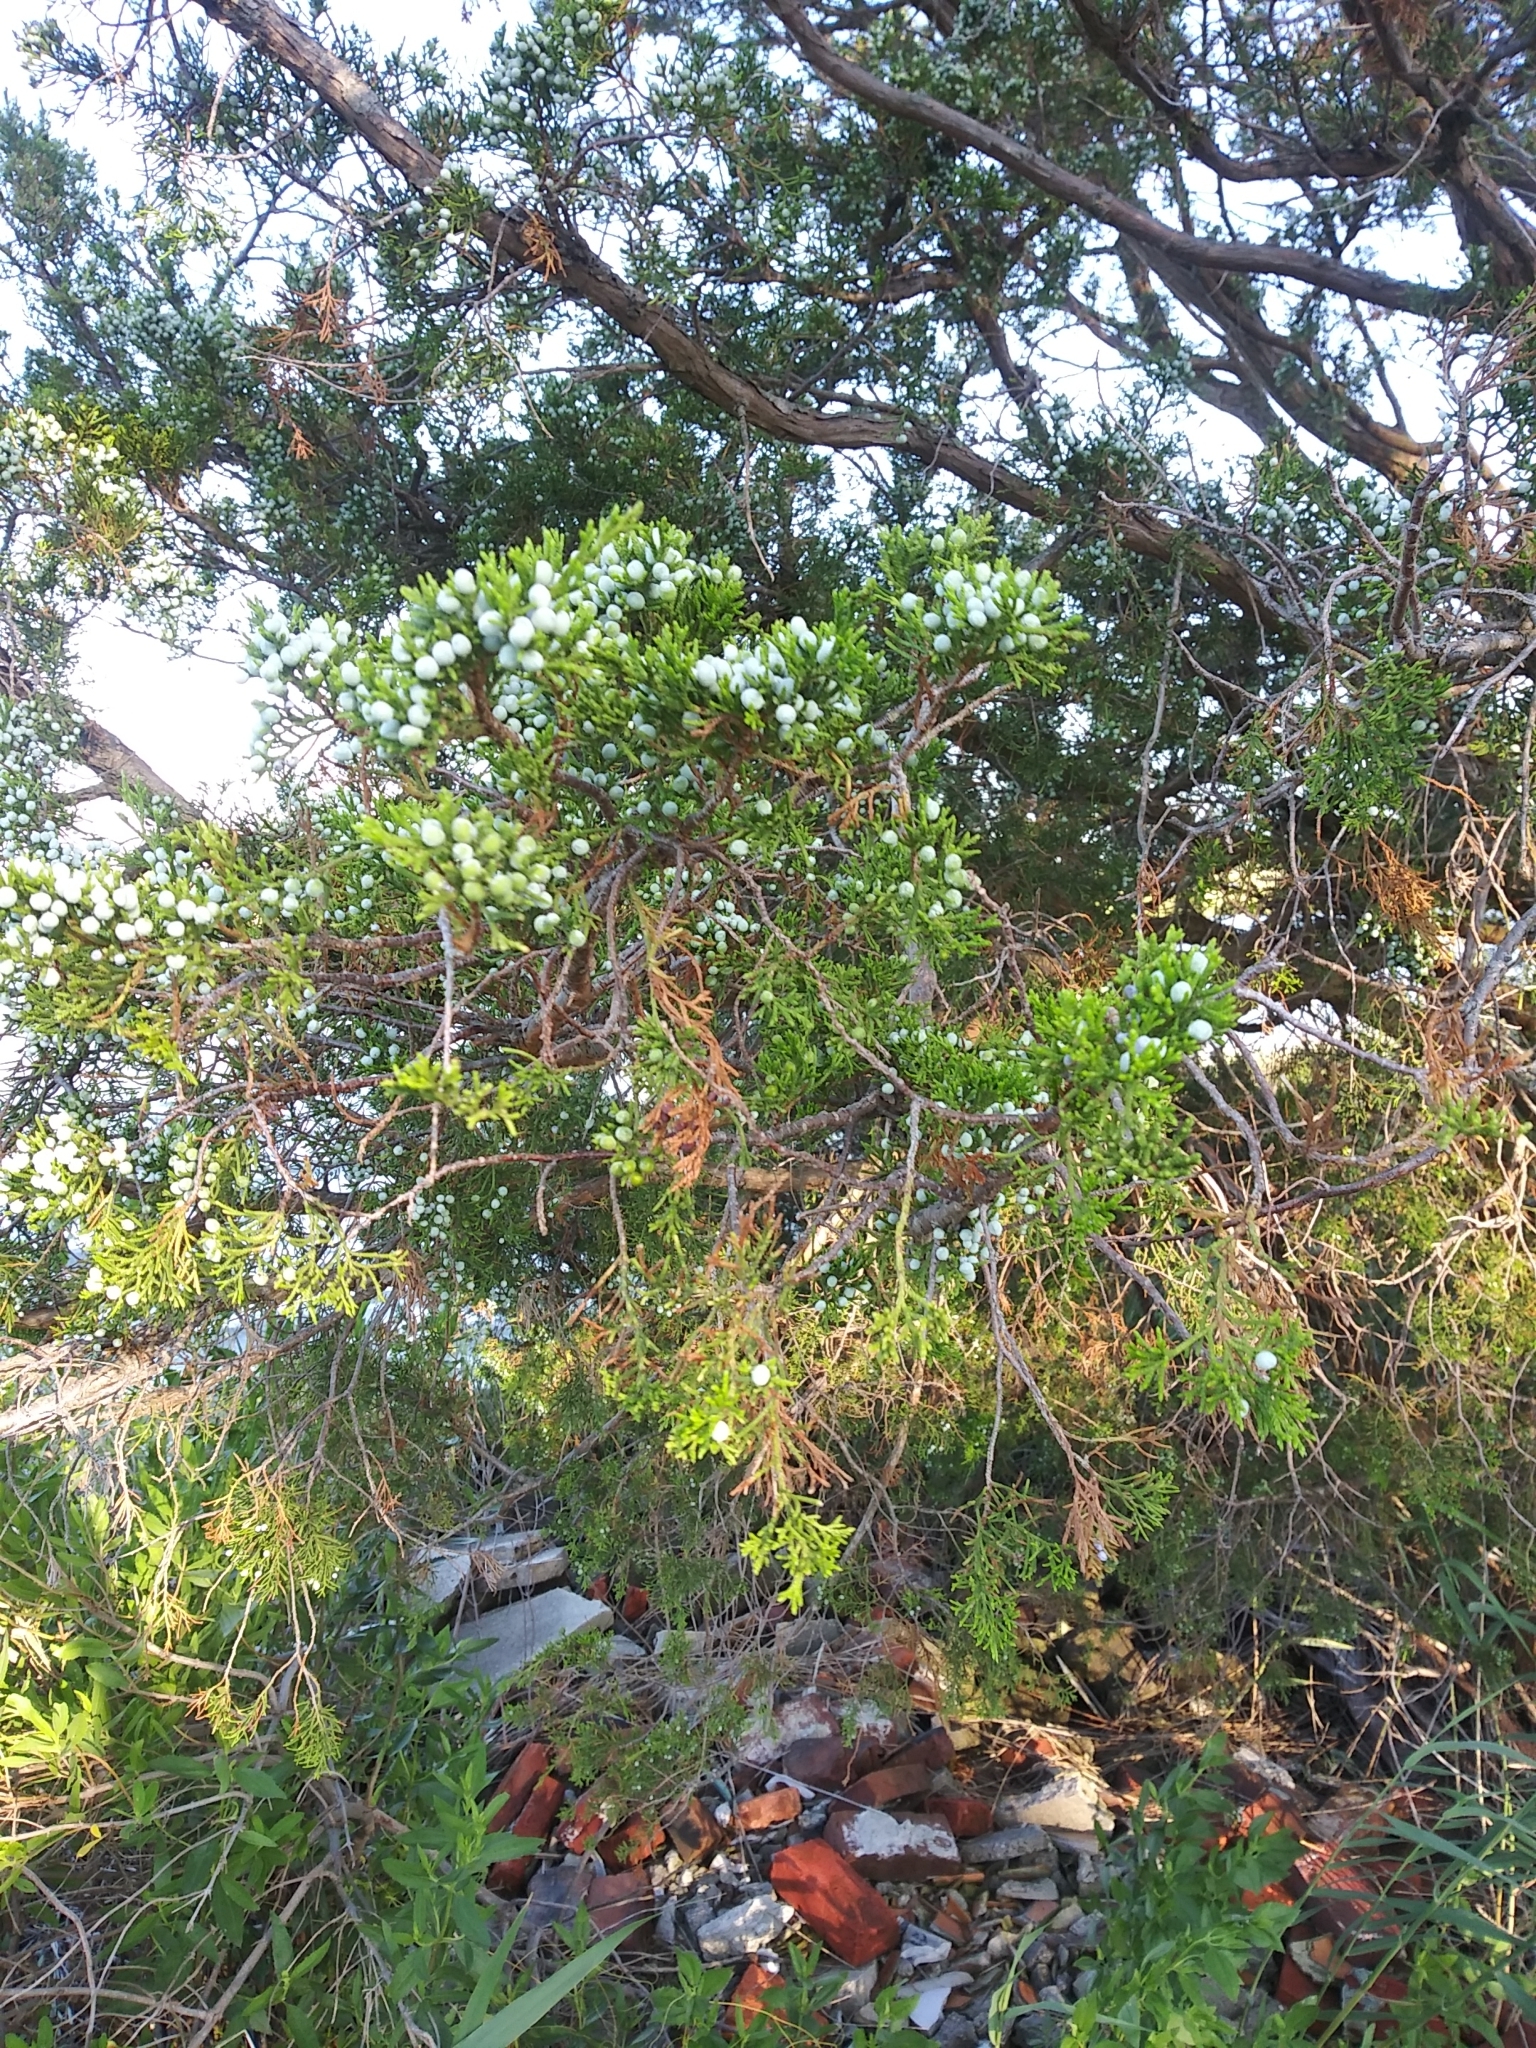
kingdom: Plantae
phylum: Tracheophyta
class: Pinopsida
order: Pinales
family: Cupressaceae
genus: Juniperus
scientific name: Juniperus virginiana
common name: Red juniper
